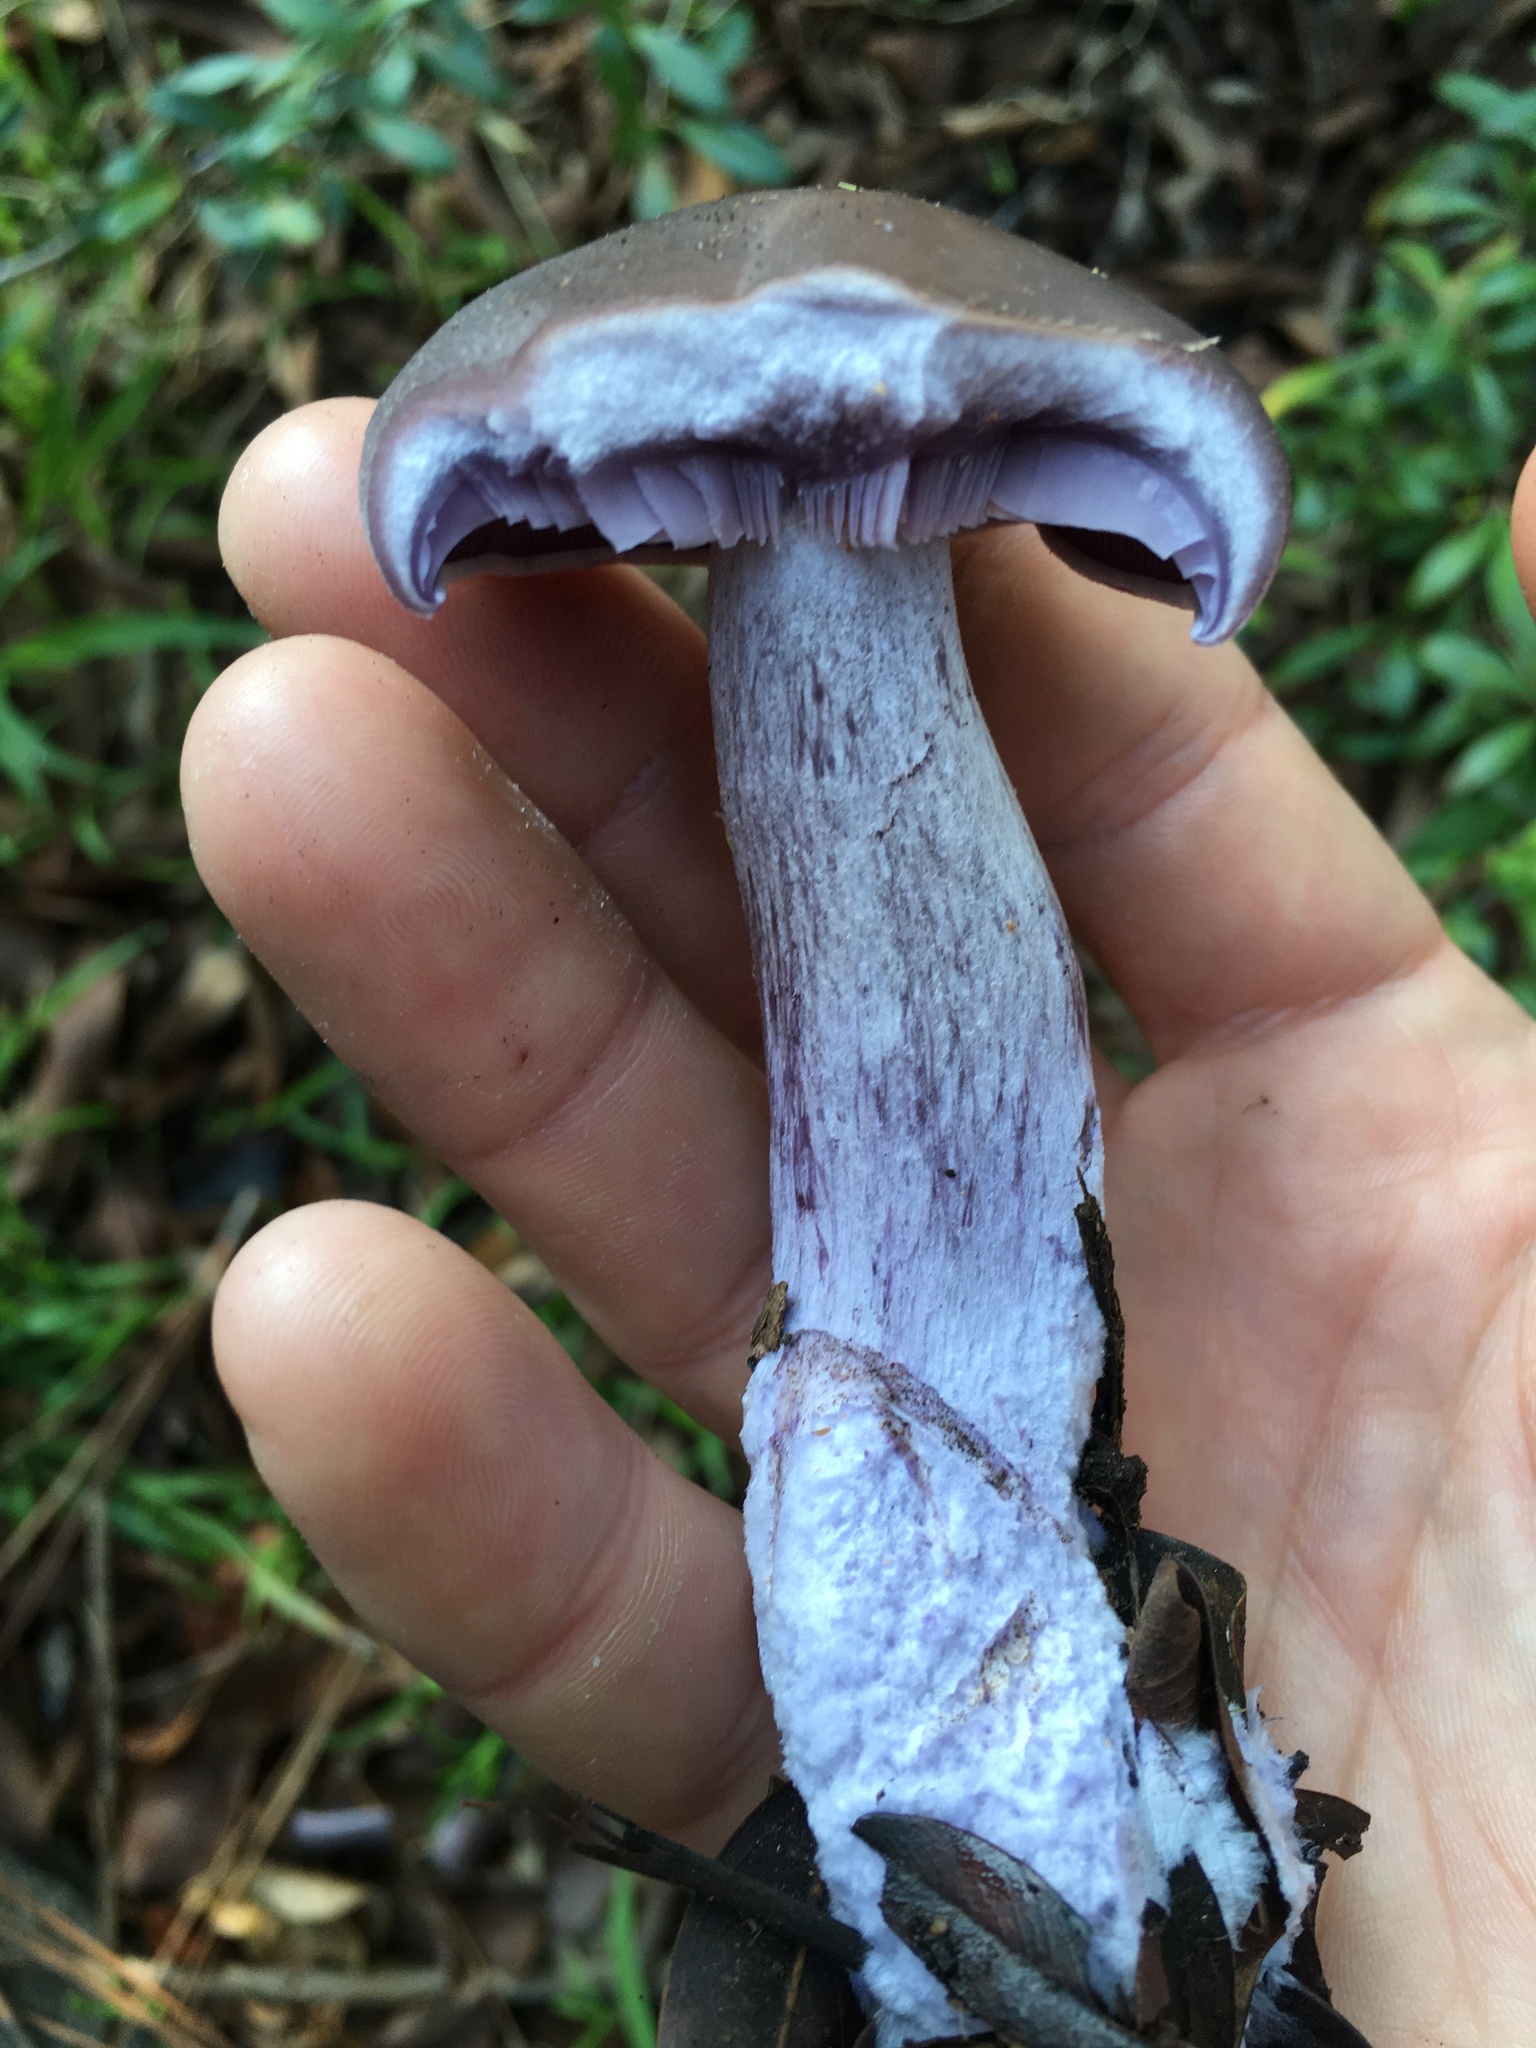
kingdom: Fungi
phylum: Basidiomycota
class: Agaricomycetes
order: Agaricales
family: Tricholomataceae
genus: Collybia
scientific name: Collybia
